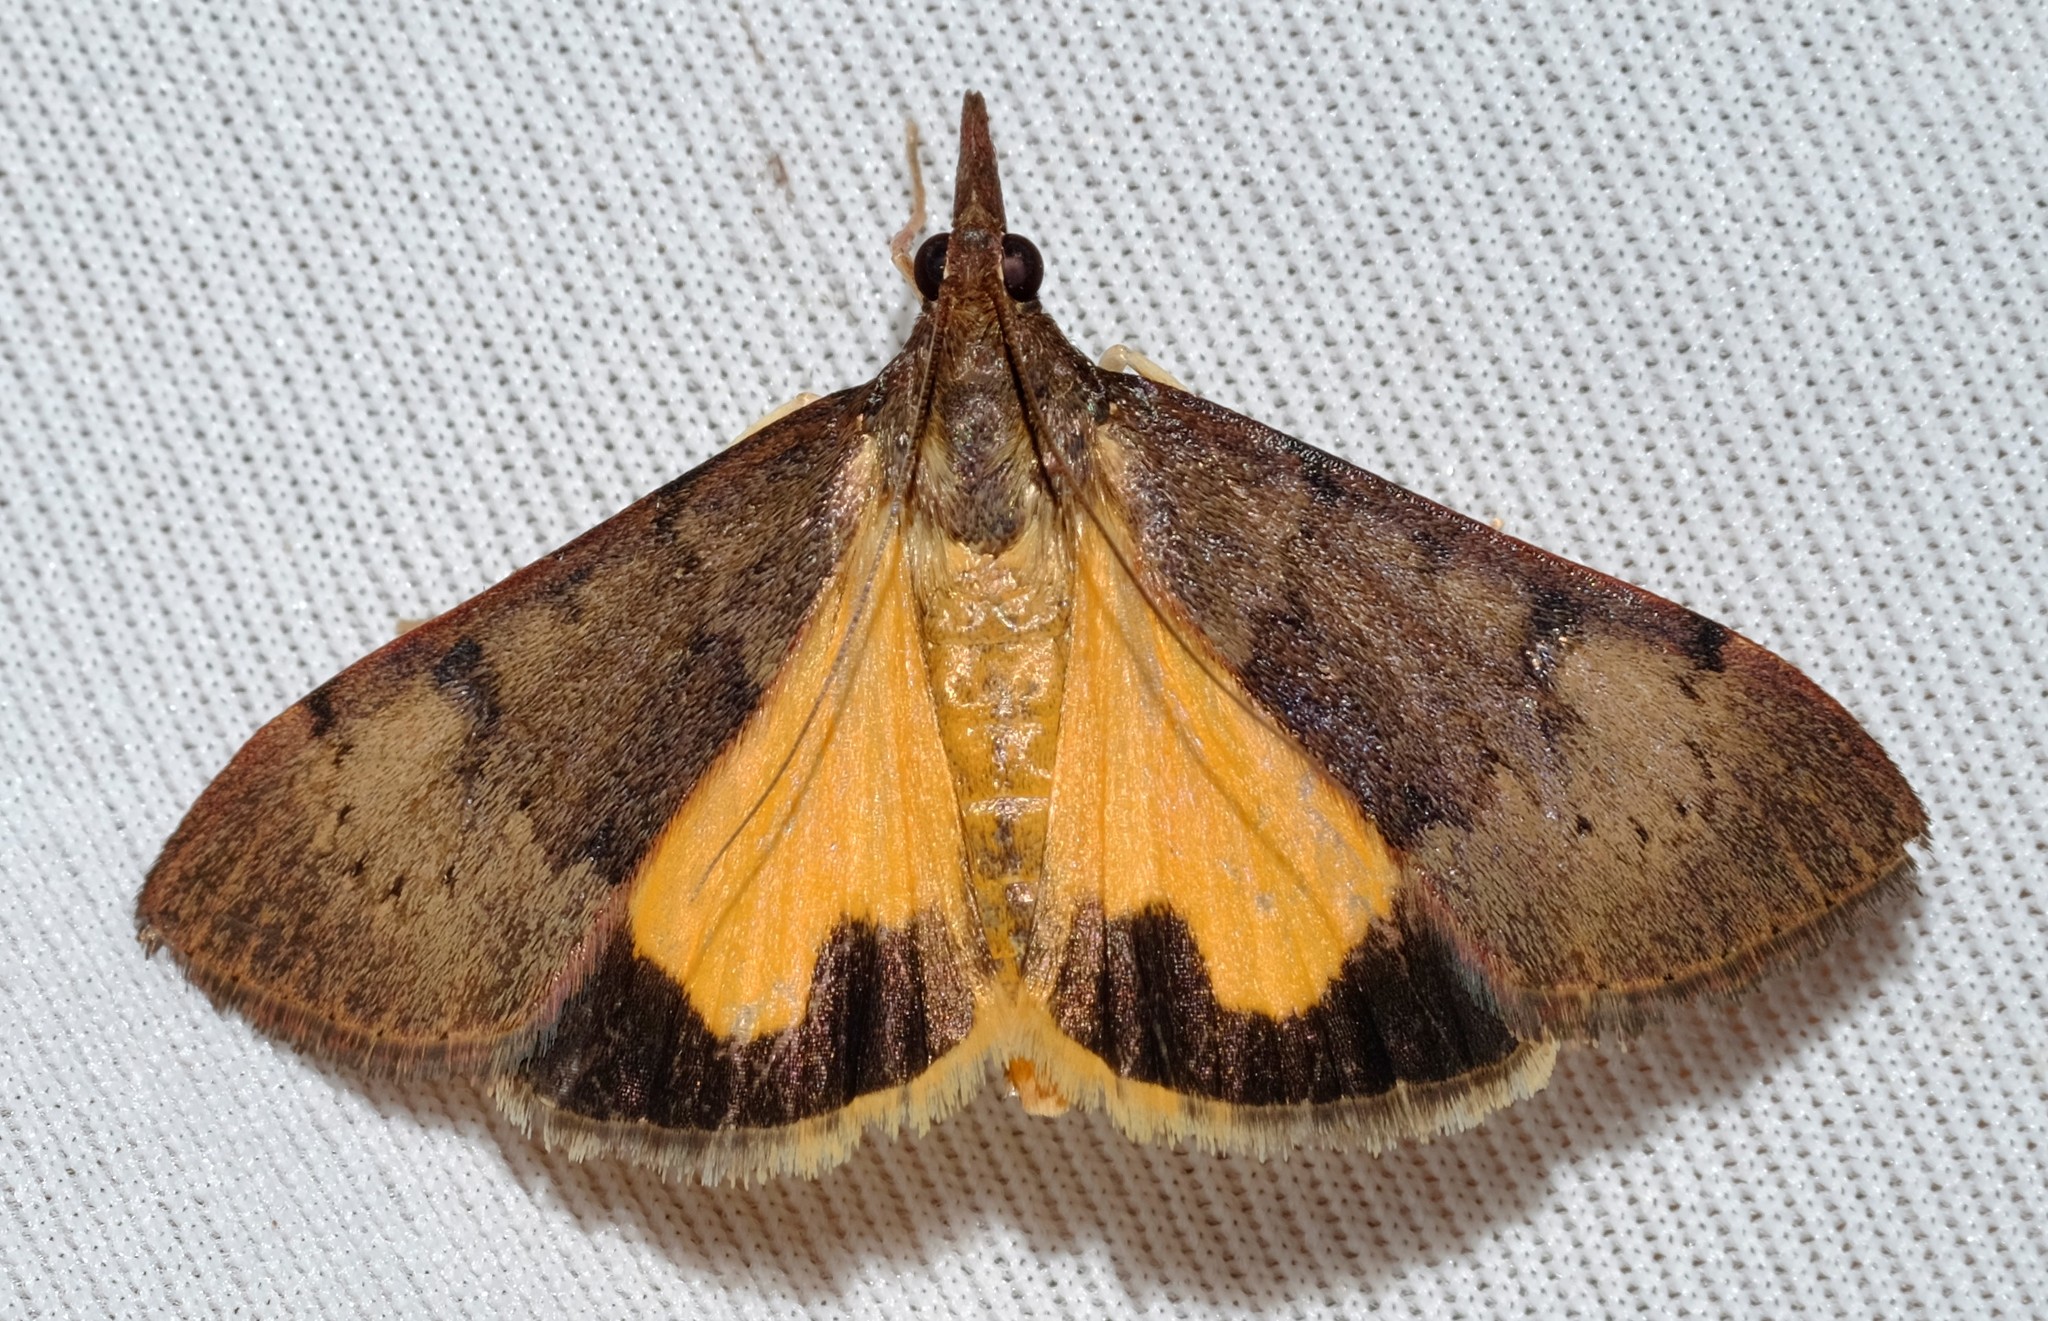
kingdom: Animalia
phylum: Arthropoda
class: Insecta
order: Lepidoptera
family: Crambidae
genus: Uresiphita
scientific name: Uresiphita ornithopteralis
